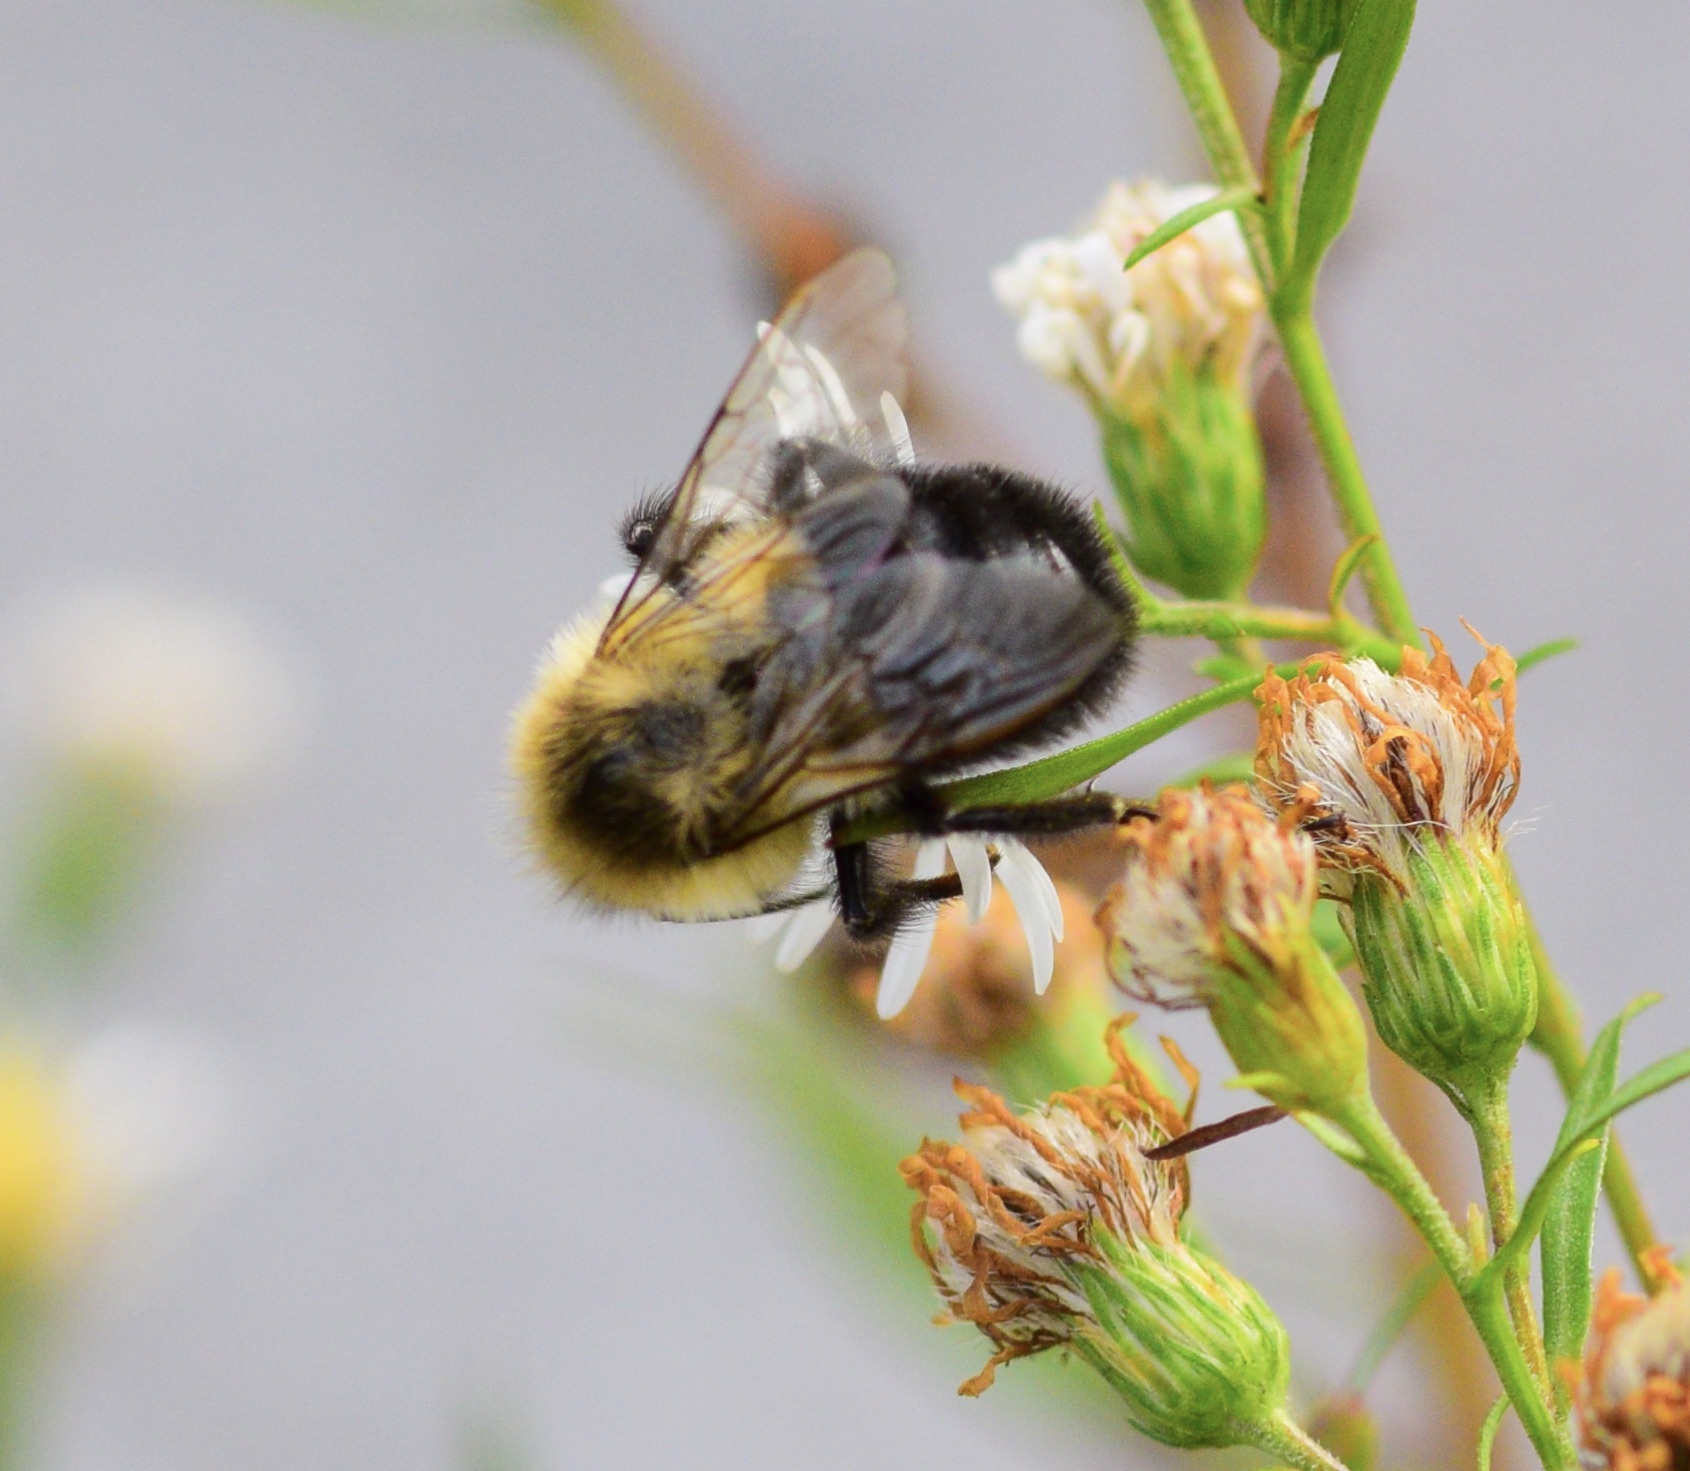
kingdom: Animalia
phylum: Arthropoda
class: Insecta
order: Hymenoptera
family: Apidae
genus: Bombus
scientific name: Bombus impatiens
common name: Common eastern bumble bee
